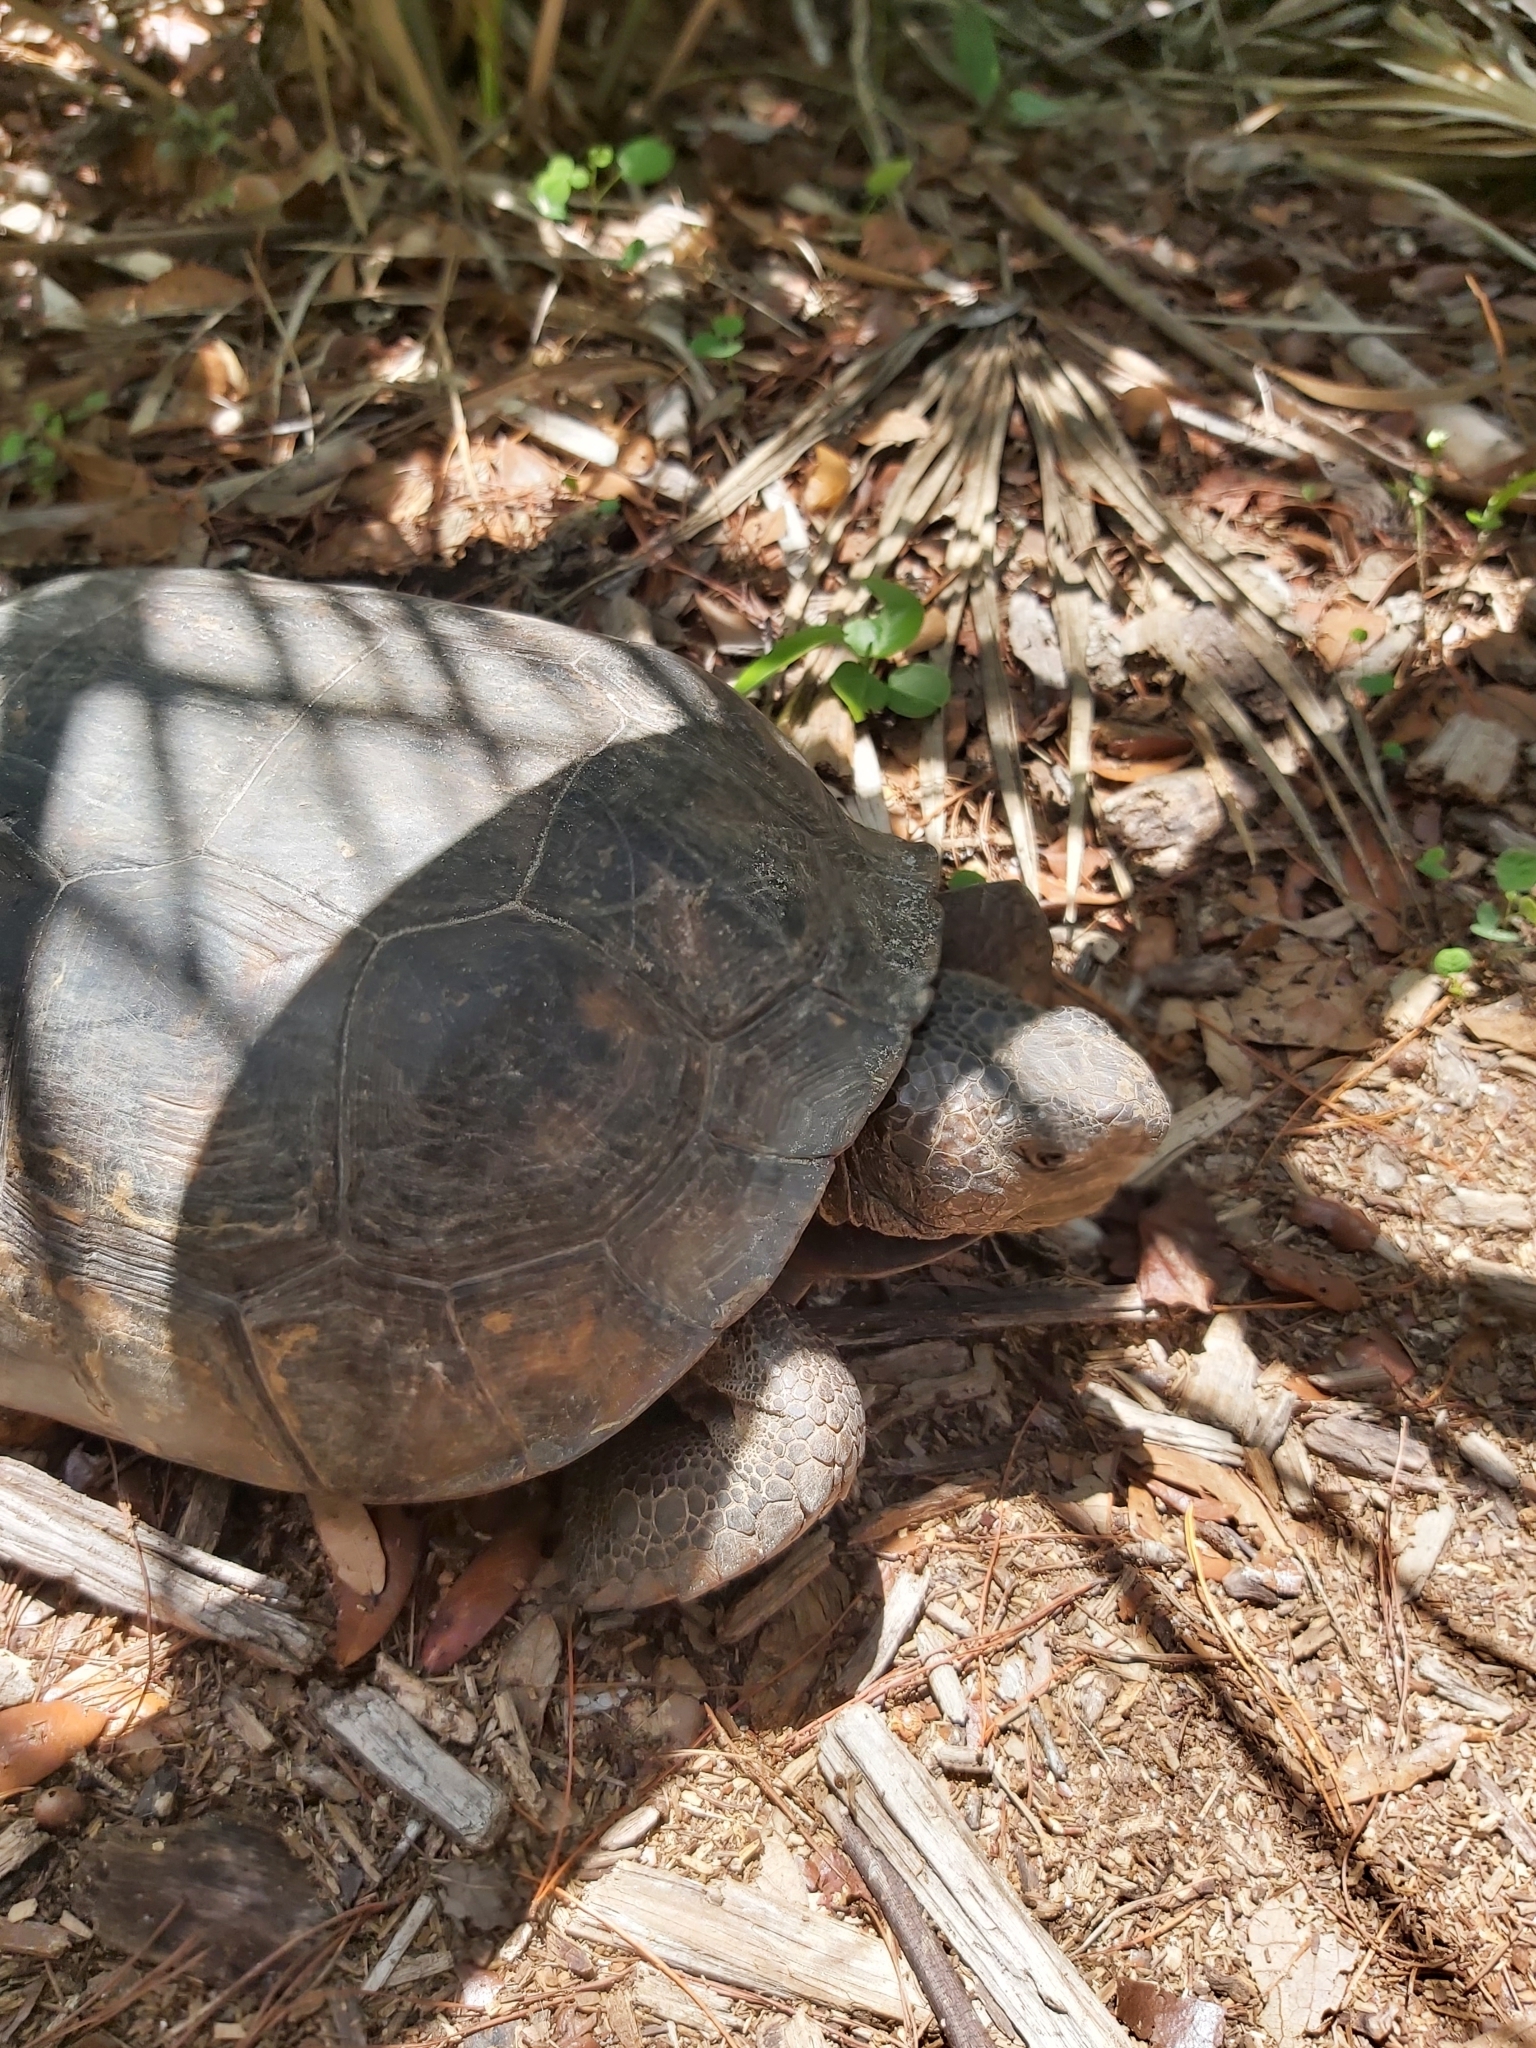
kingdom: Animalia
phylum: Chordata
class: Testudines
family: Testudinidae
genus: Gopherus
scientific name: Gopherus polyphemus
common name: Florida gopher tortoise
